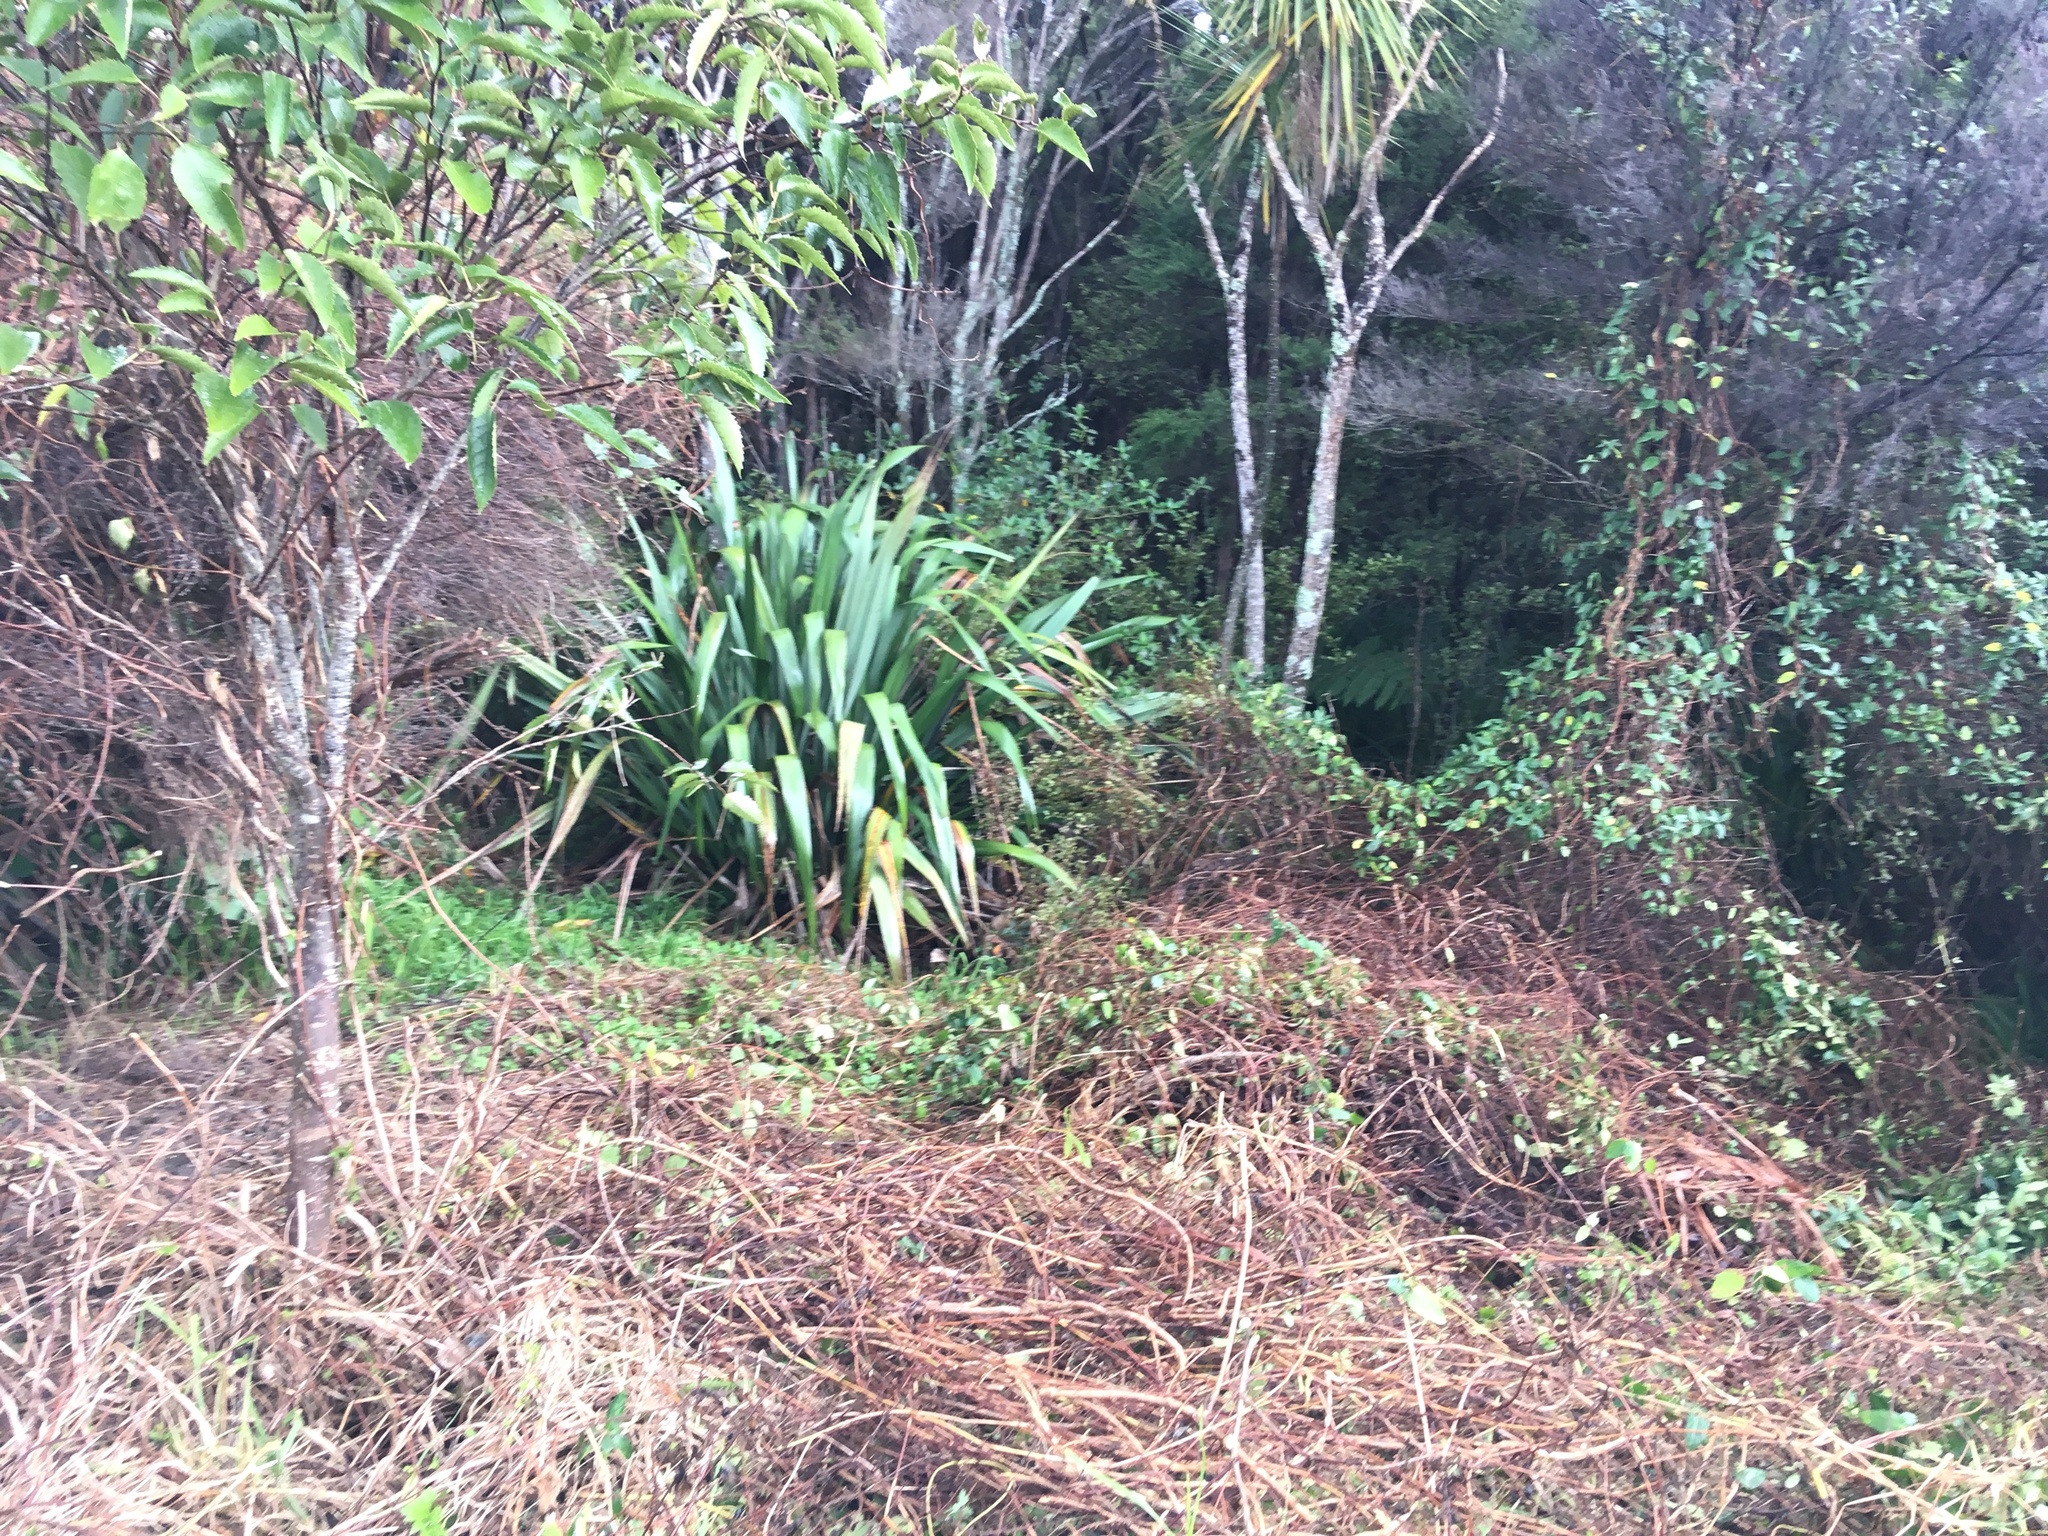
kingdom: Plantae
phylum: Tracheophyta
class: Liliopsida
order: Asparagales
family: Asphodelaceae
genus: Phormium
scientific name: Phormium tenax
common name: New zealand flax
